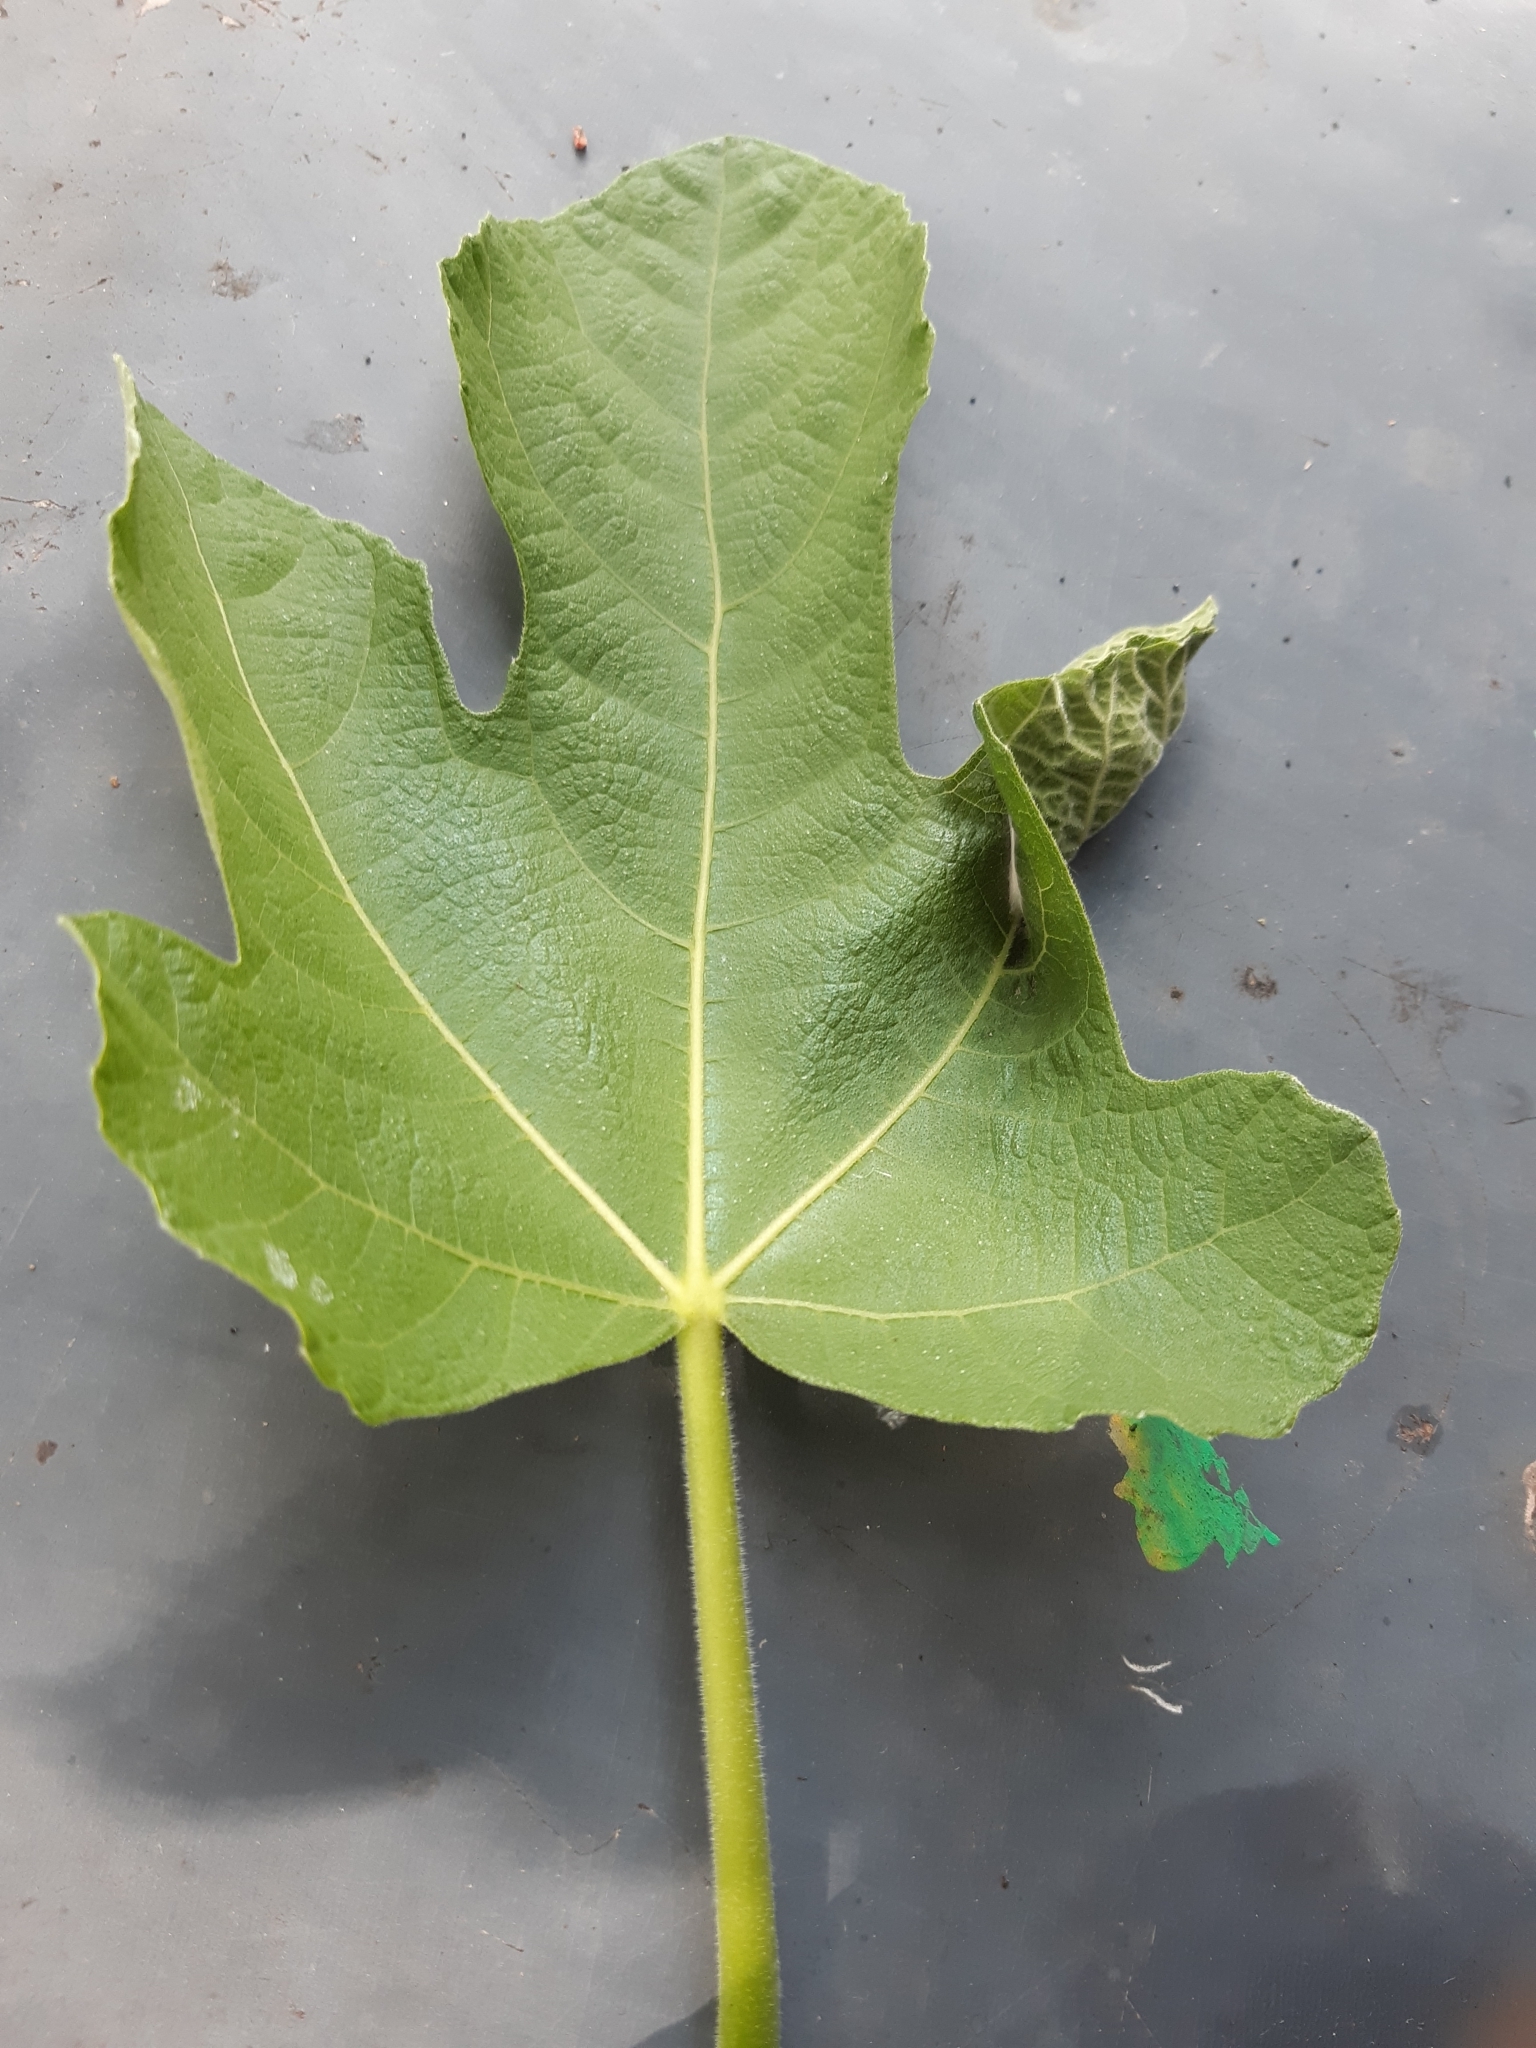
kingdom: Animalia
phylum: Arthropoda
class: Insecta
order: Lepidoptera
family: Choreutidae
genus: Anthophila
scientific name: Anthophila nemorana
